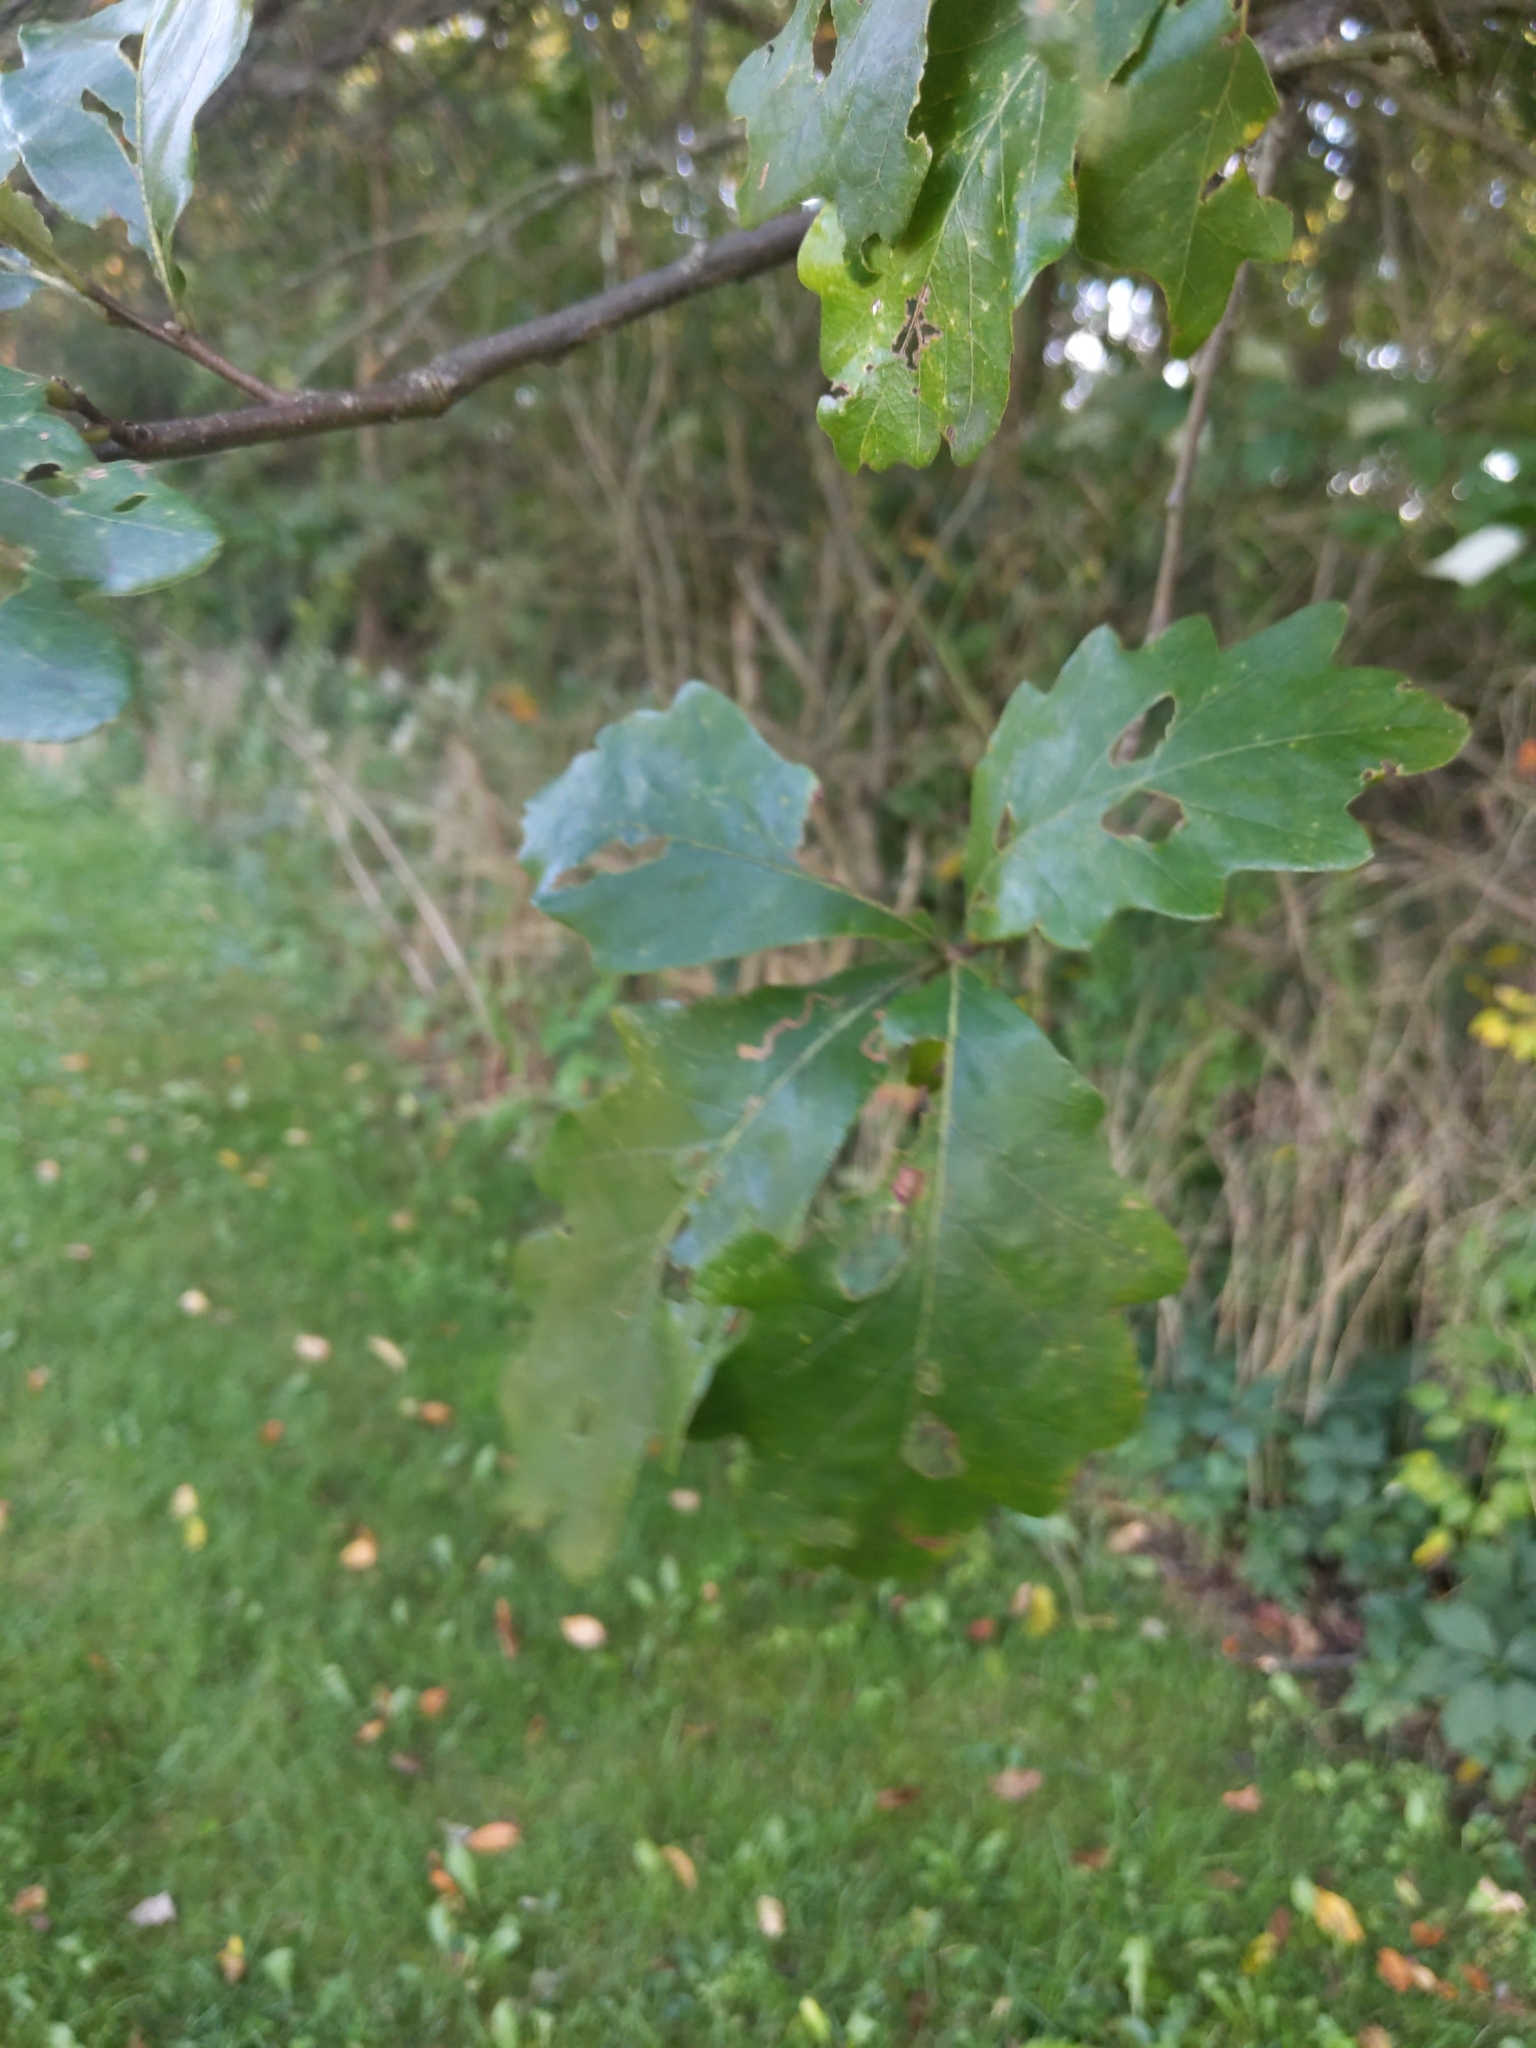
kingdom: Animalia
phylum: Arthropoda
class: Insecta
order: Hymenoptera
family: Cynipidae
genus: Andricus
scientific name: Andricus
